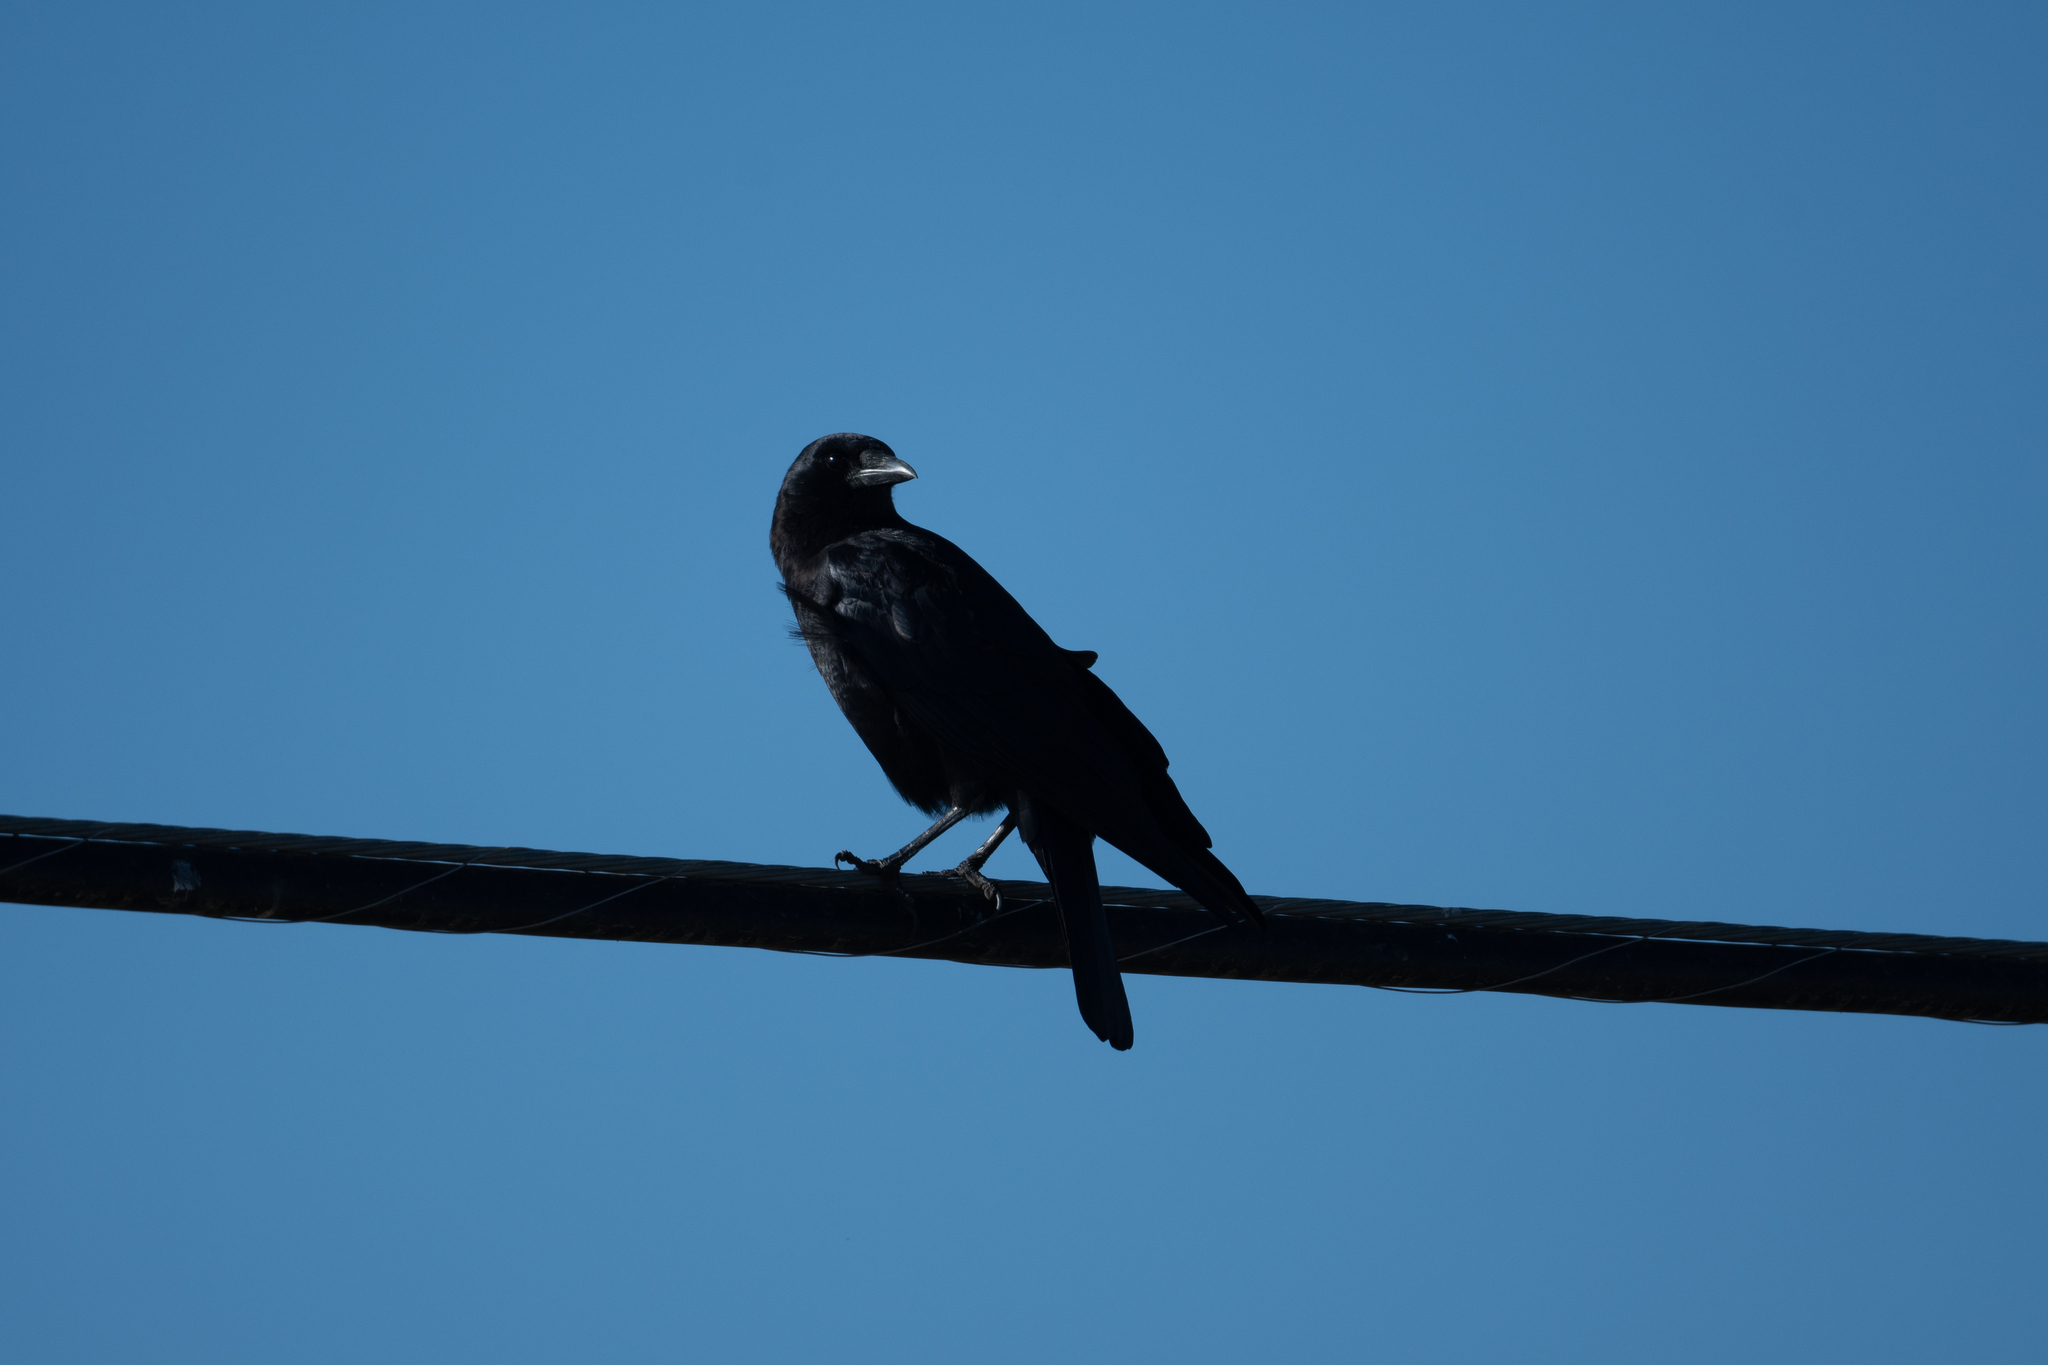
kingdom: Animalia
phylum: Chordata
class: Aves
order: Passeriformes
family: Corvidae
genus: Corvus
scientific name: Corvus brachyrhynchos
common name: American crow
